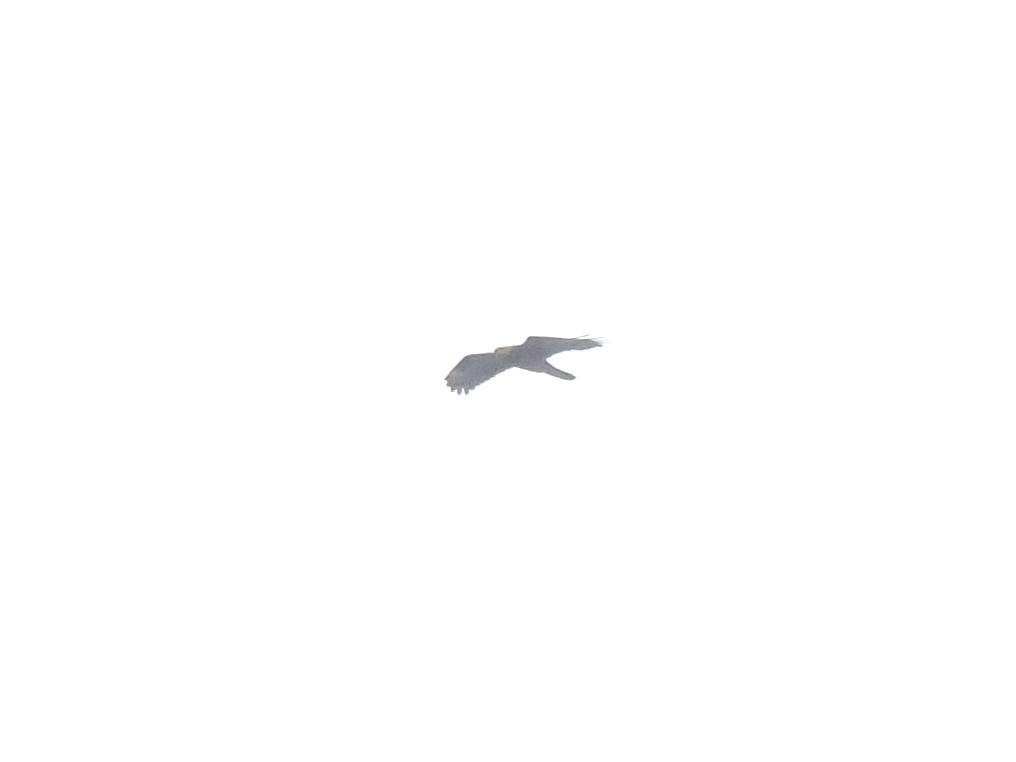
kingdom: Animalia
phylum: Chordata
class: Aves
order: Accipitriformes
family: Accipitridae
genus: Pernis
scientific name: Pernis apivorus
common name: European honey buzzard
